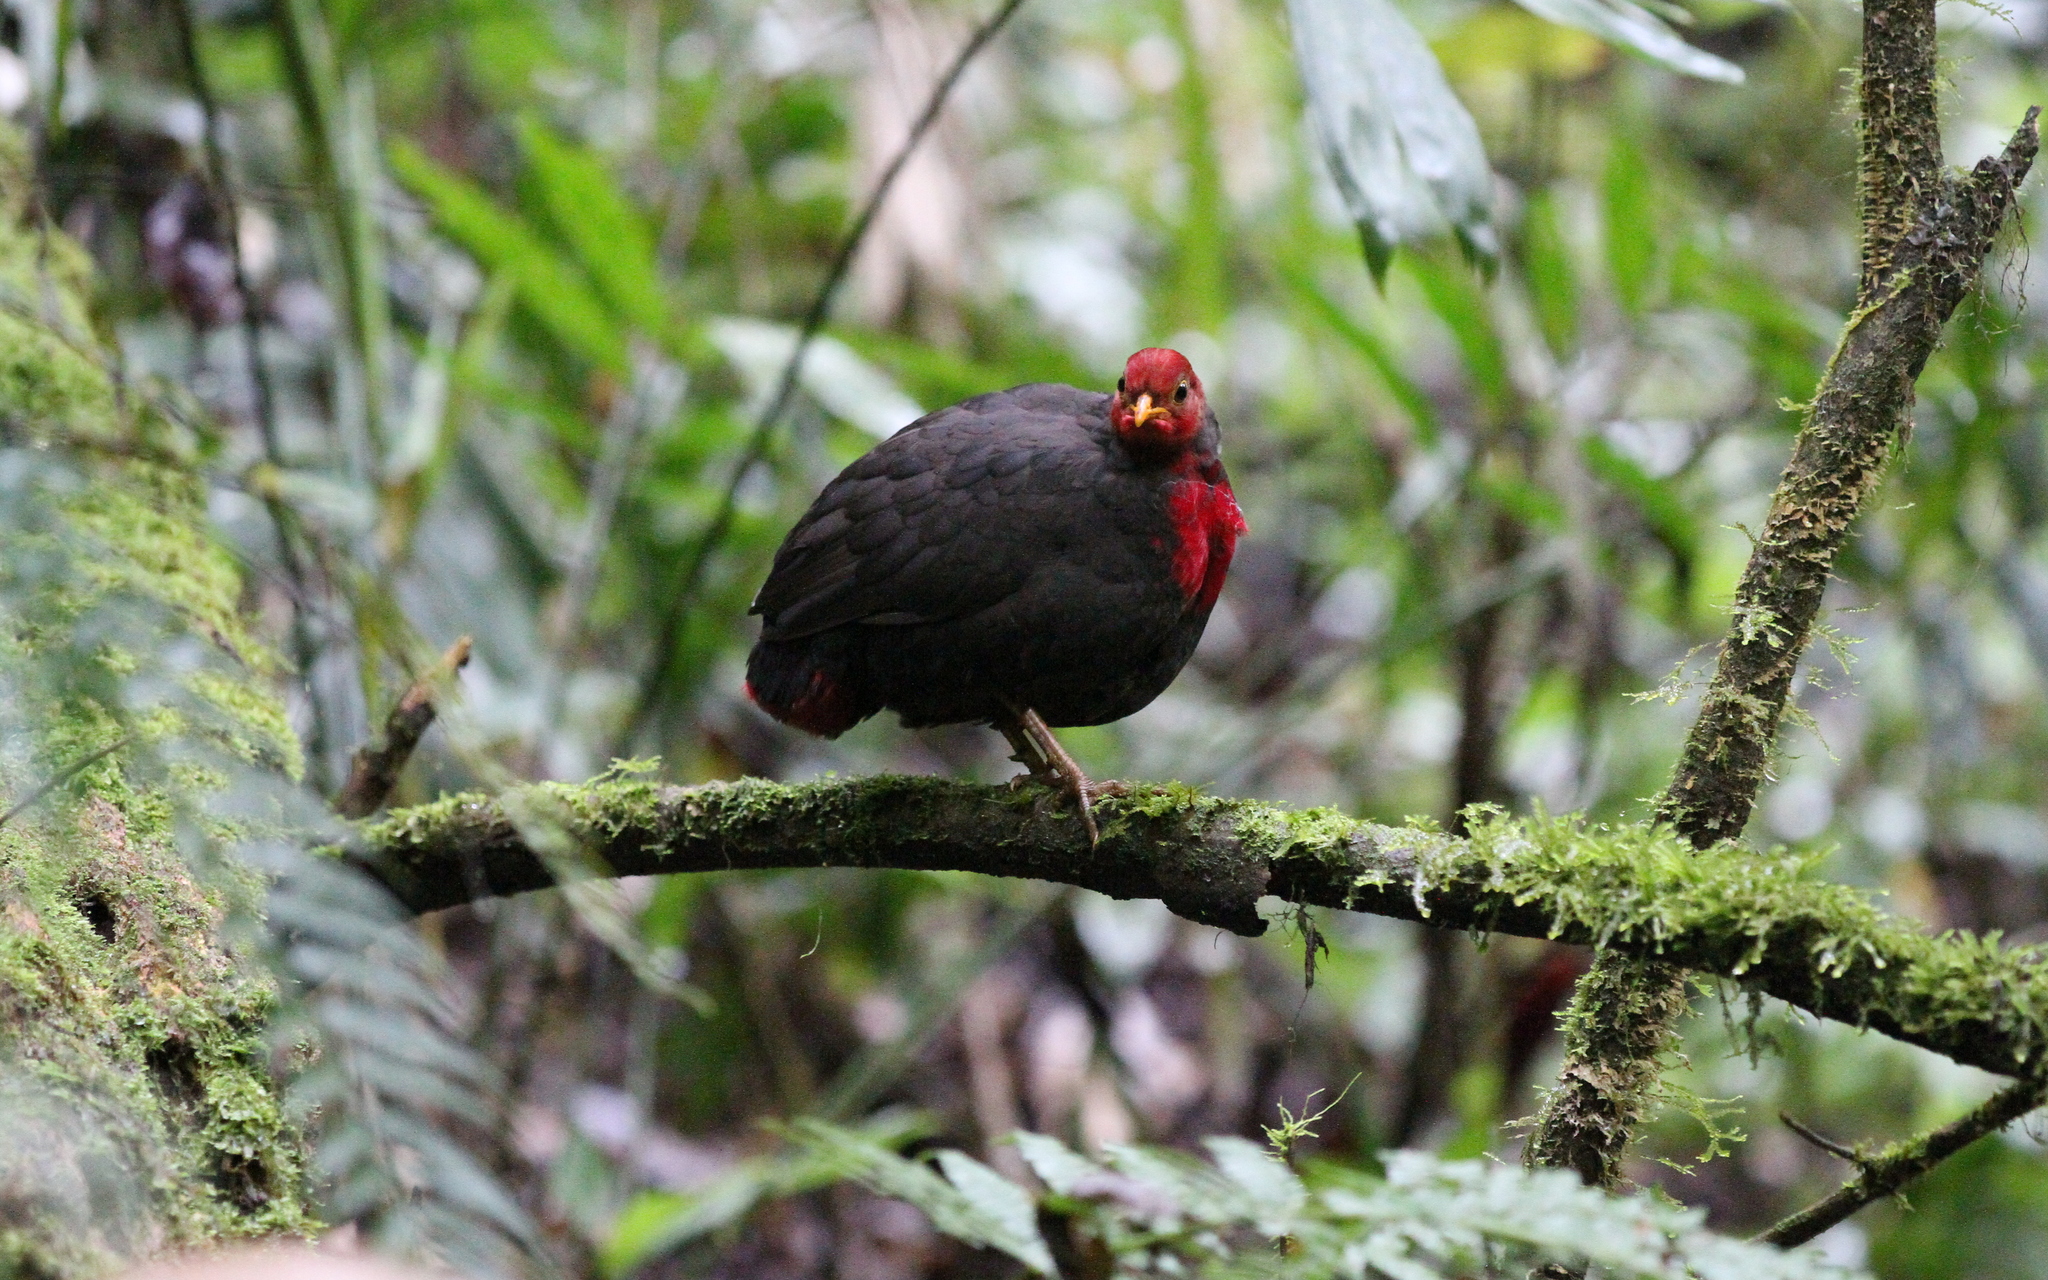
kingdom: Animalia
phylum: Chordata
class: Aves
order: Galliformes
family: Phasianidae
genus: Haematortyx
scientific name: Haematortyx sanguiniceps
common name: Crimson-headed partridge
